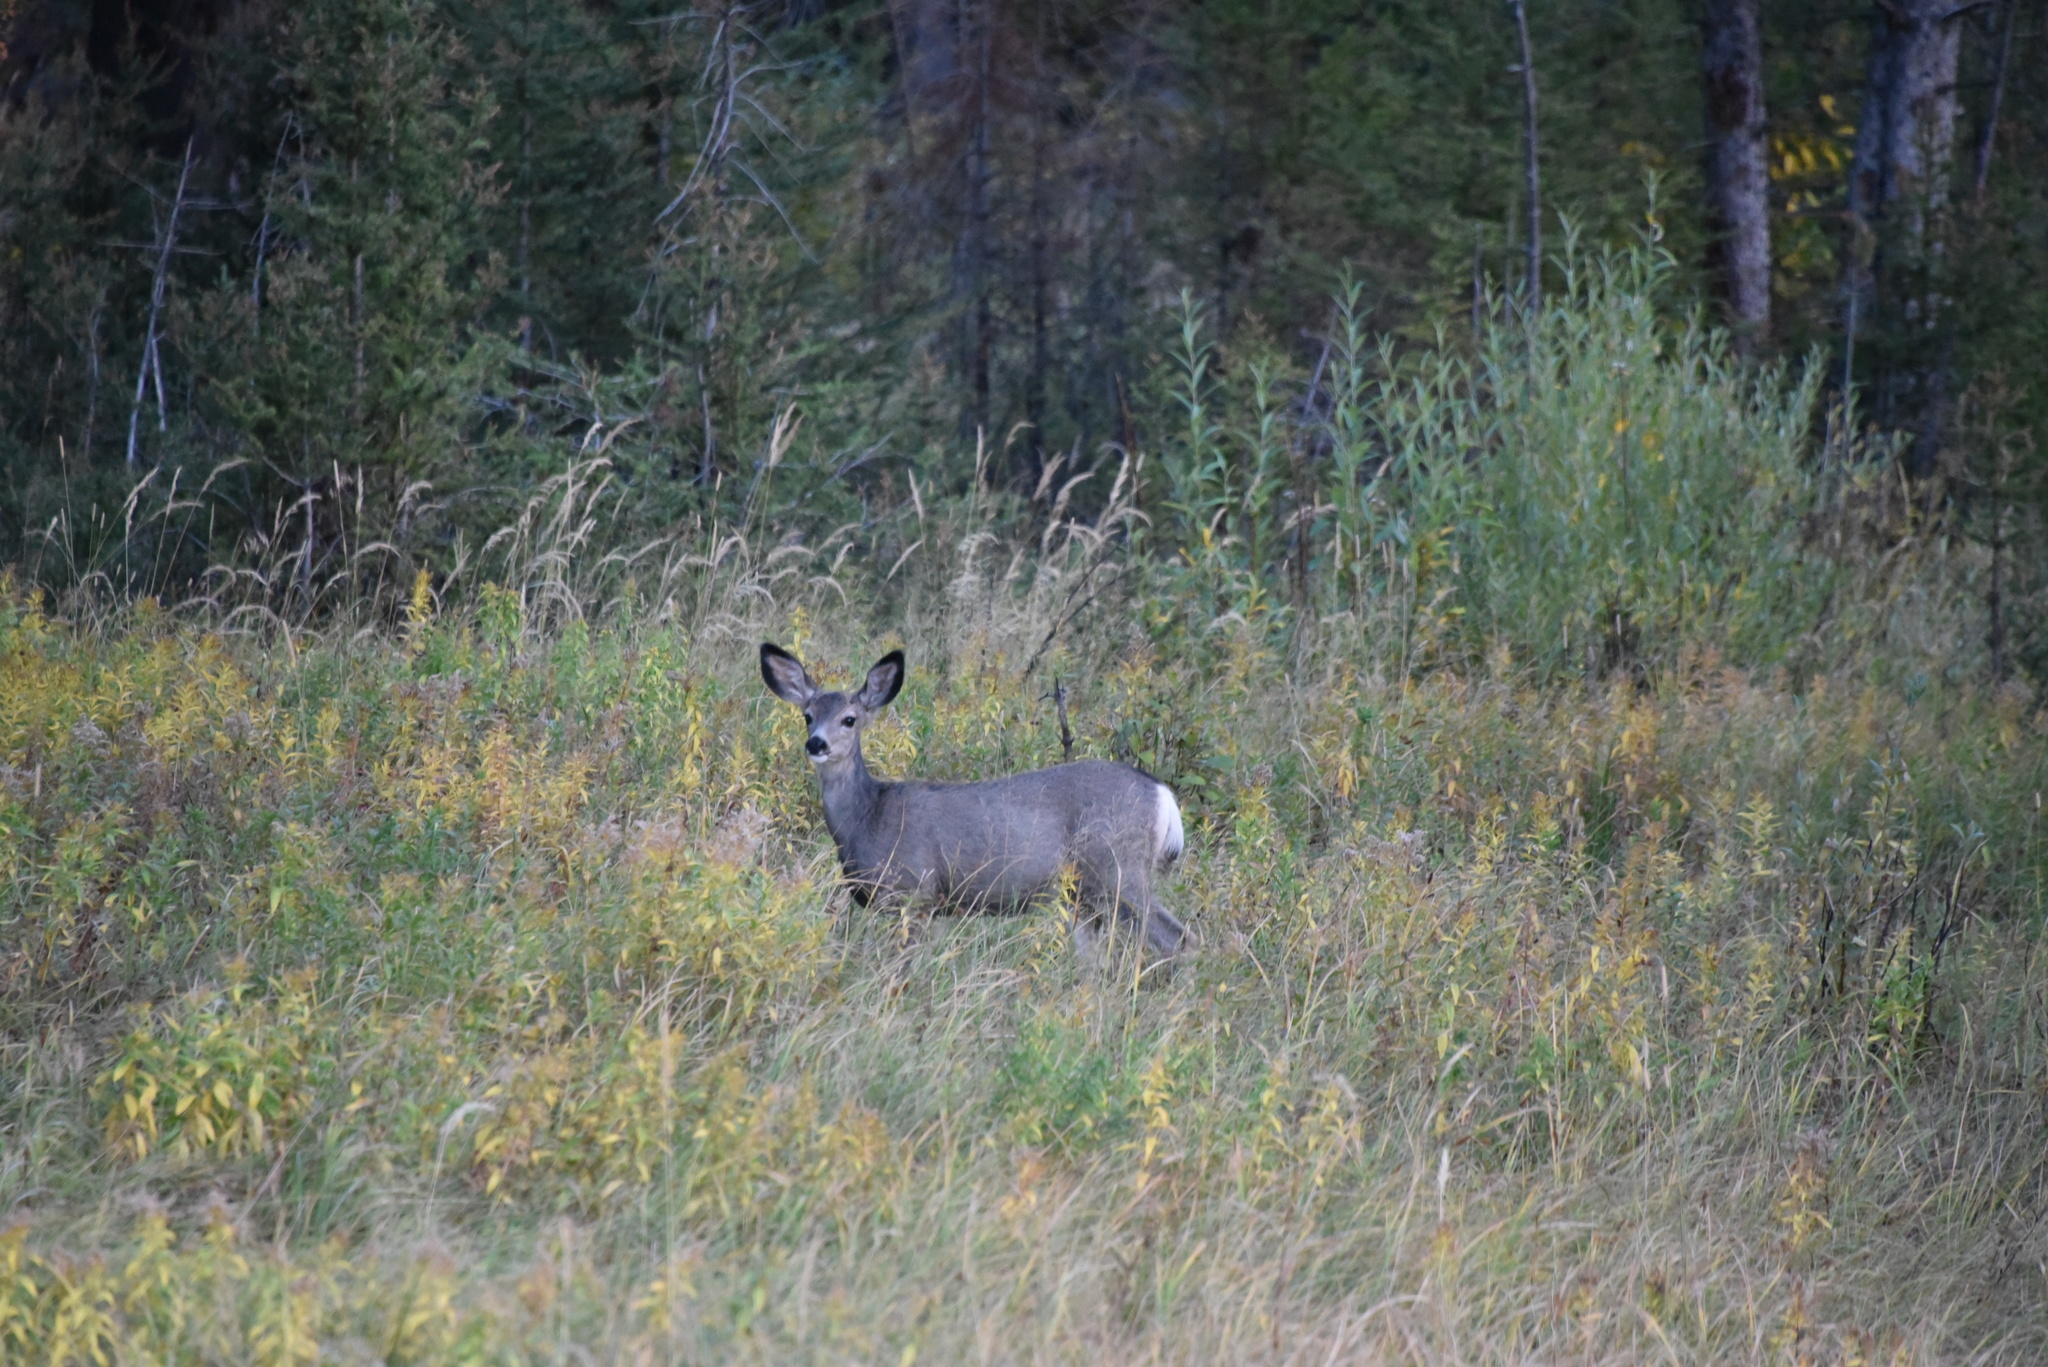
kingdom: Animalia
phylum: Chordata
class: Mammalia
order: Artiodactyla
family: Cervidae
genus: Odocoileus
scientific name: Odocoileus hemionus
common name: Mule deer
